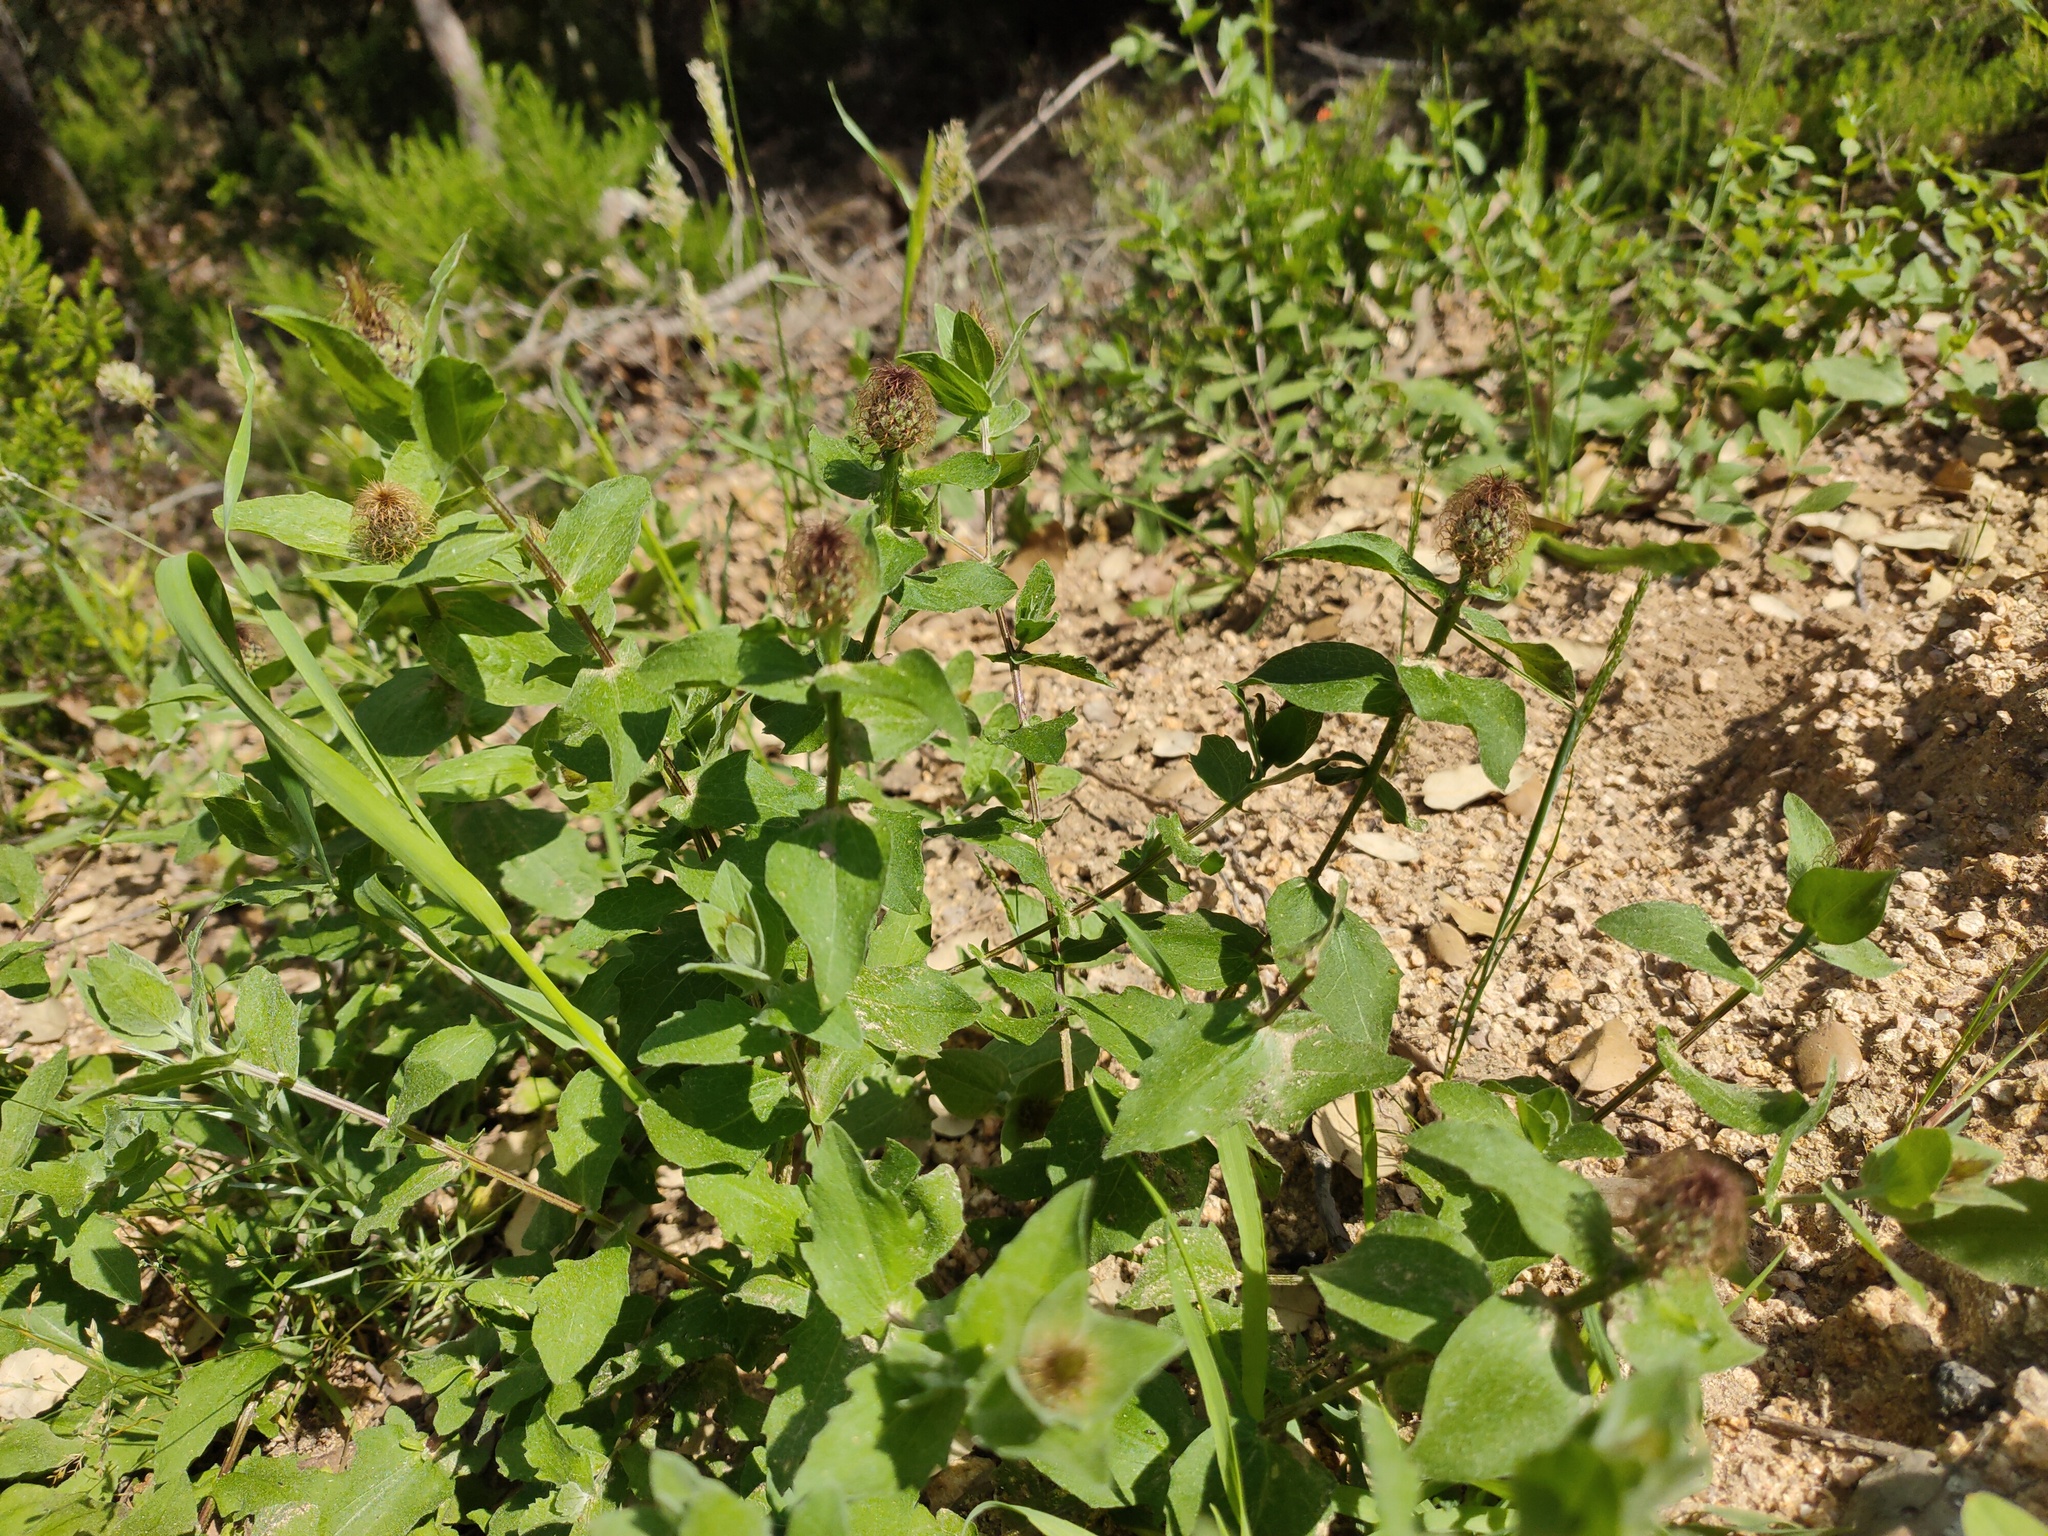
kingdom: Plantae
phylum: Tracheophyta
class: Magnoliopsida
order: Asterales
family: Asteraceae
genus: Centaurea
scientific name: Centaurea pectinata
